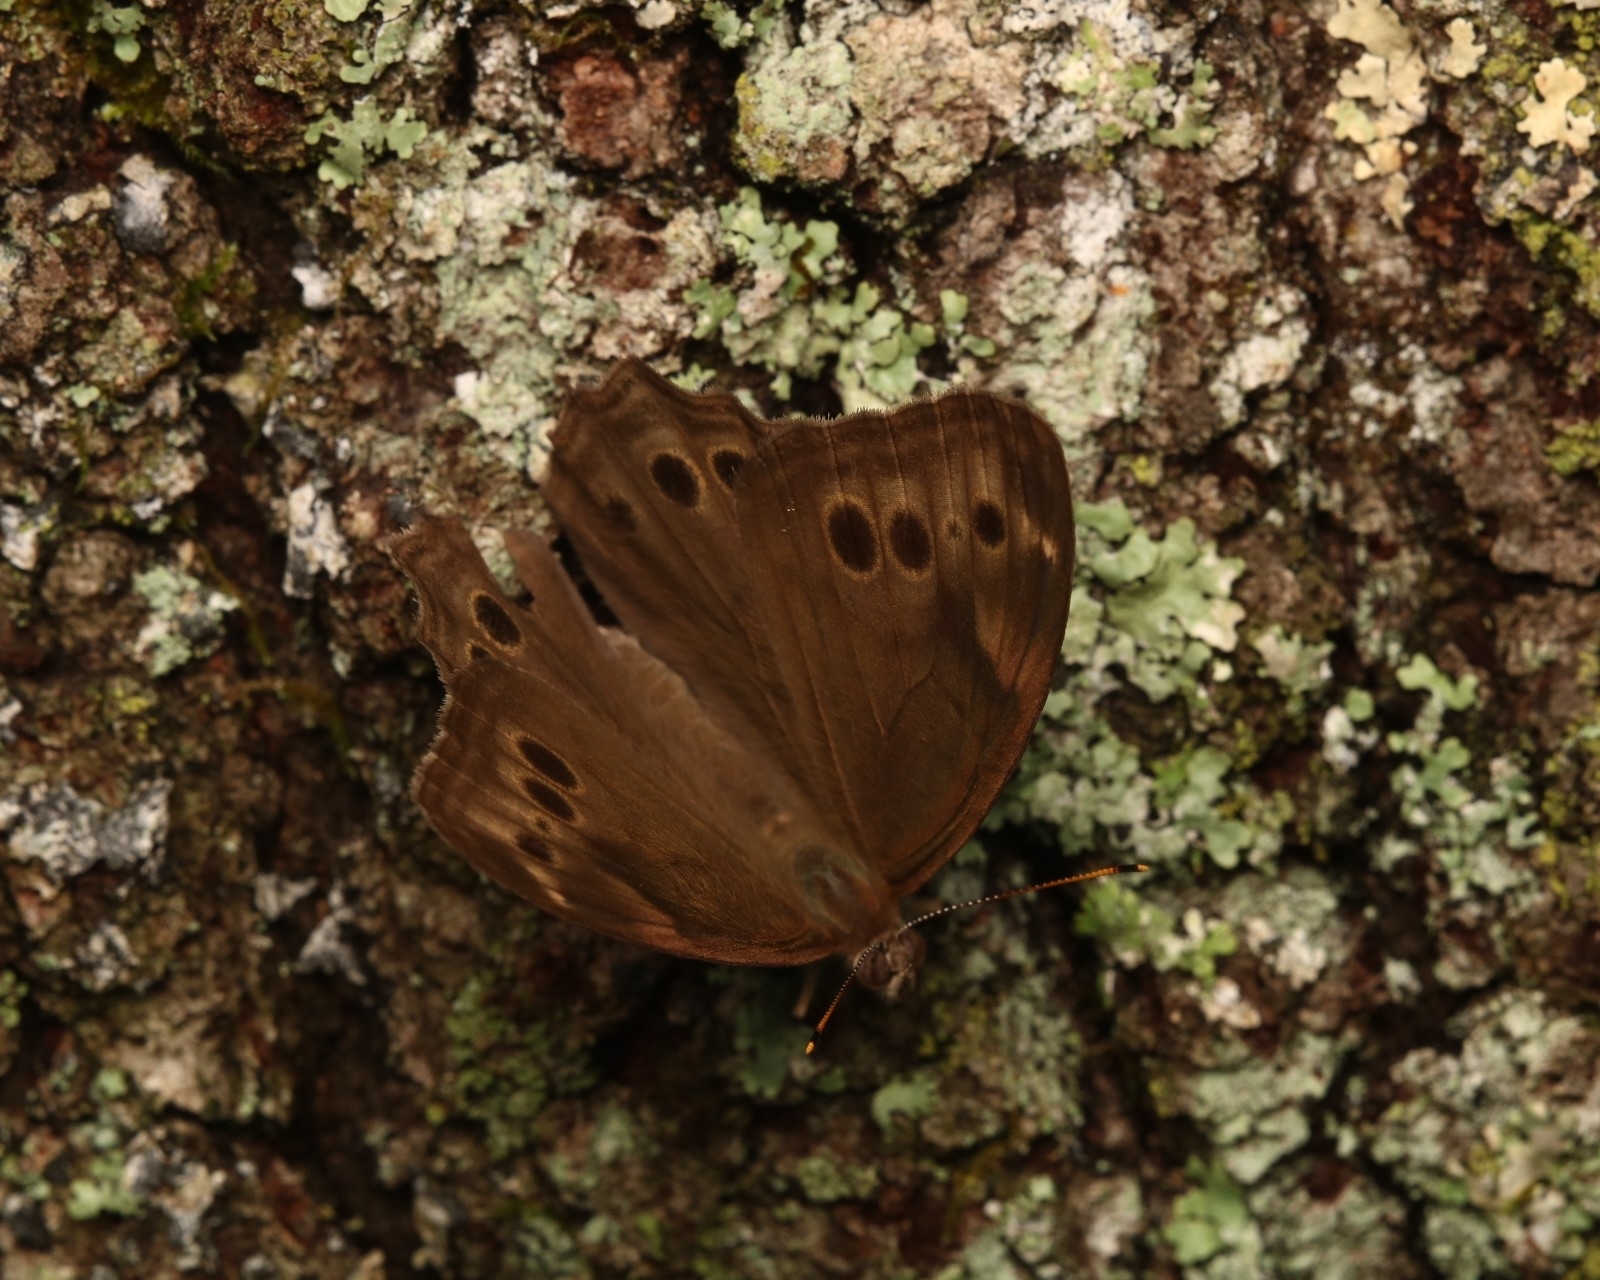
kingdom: Animalia
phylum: Arthropoda
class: Insecta
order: Lepidoptera
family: Nymphalidae
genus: Lethe
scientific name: Lethe anthedon
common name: Northern pearly-eye
